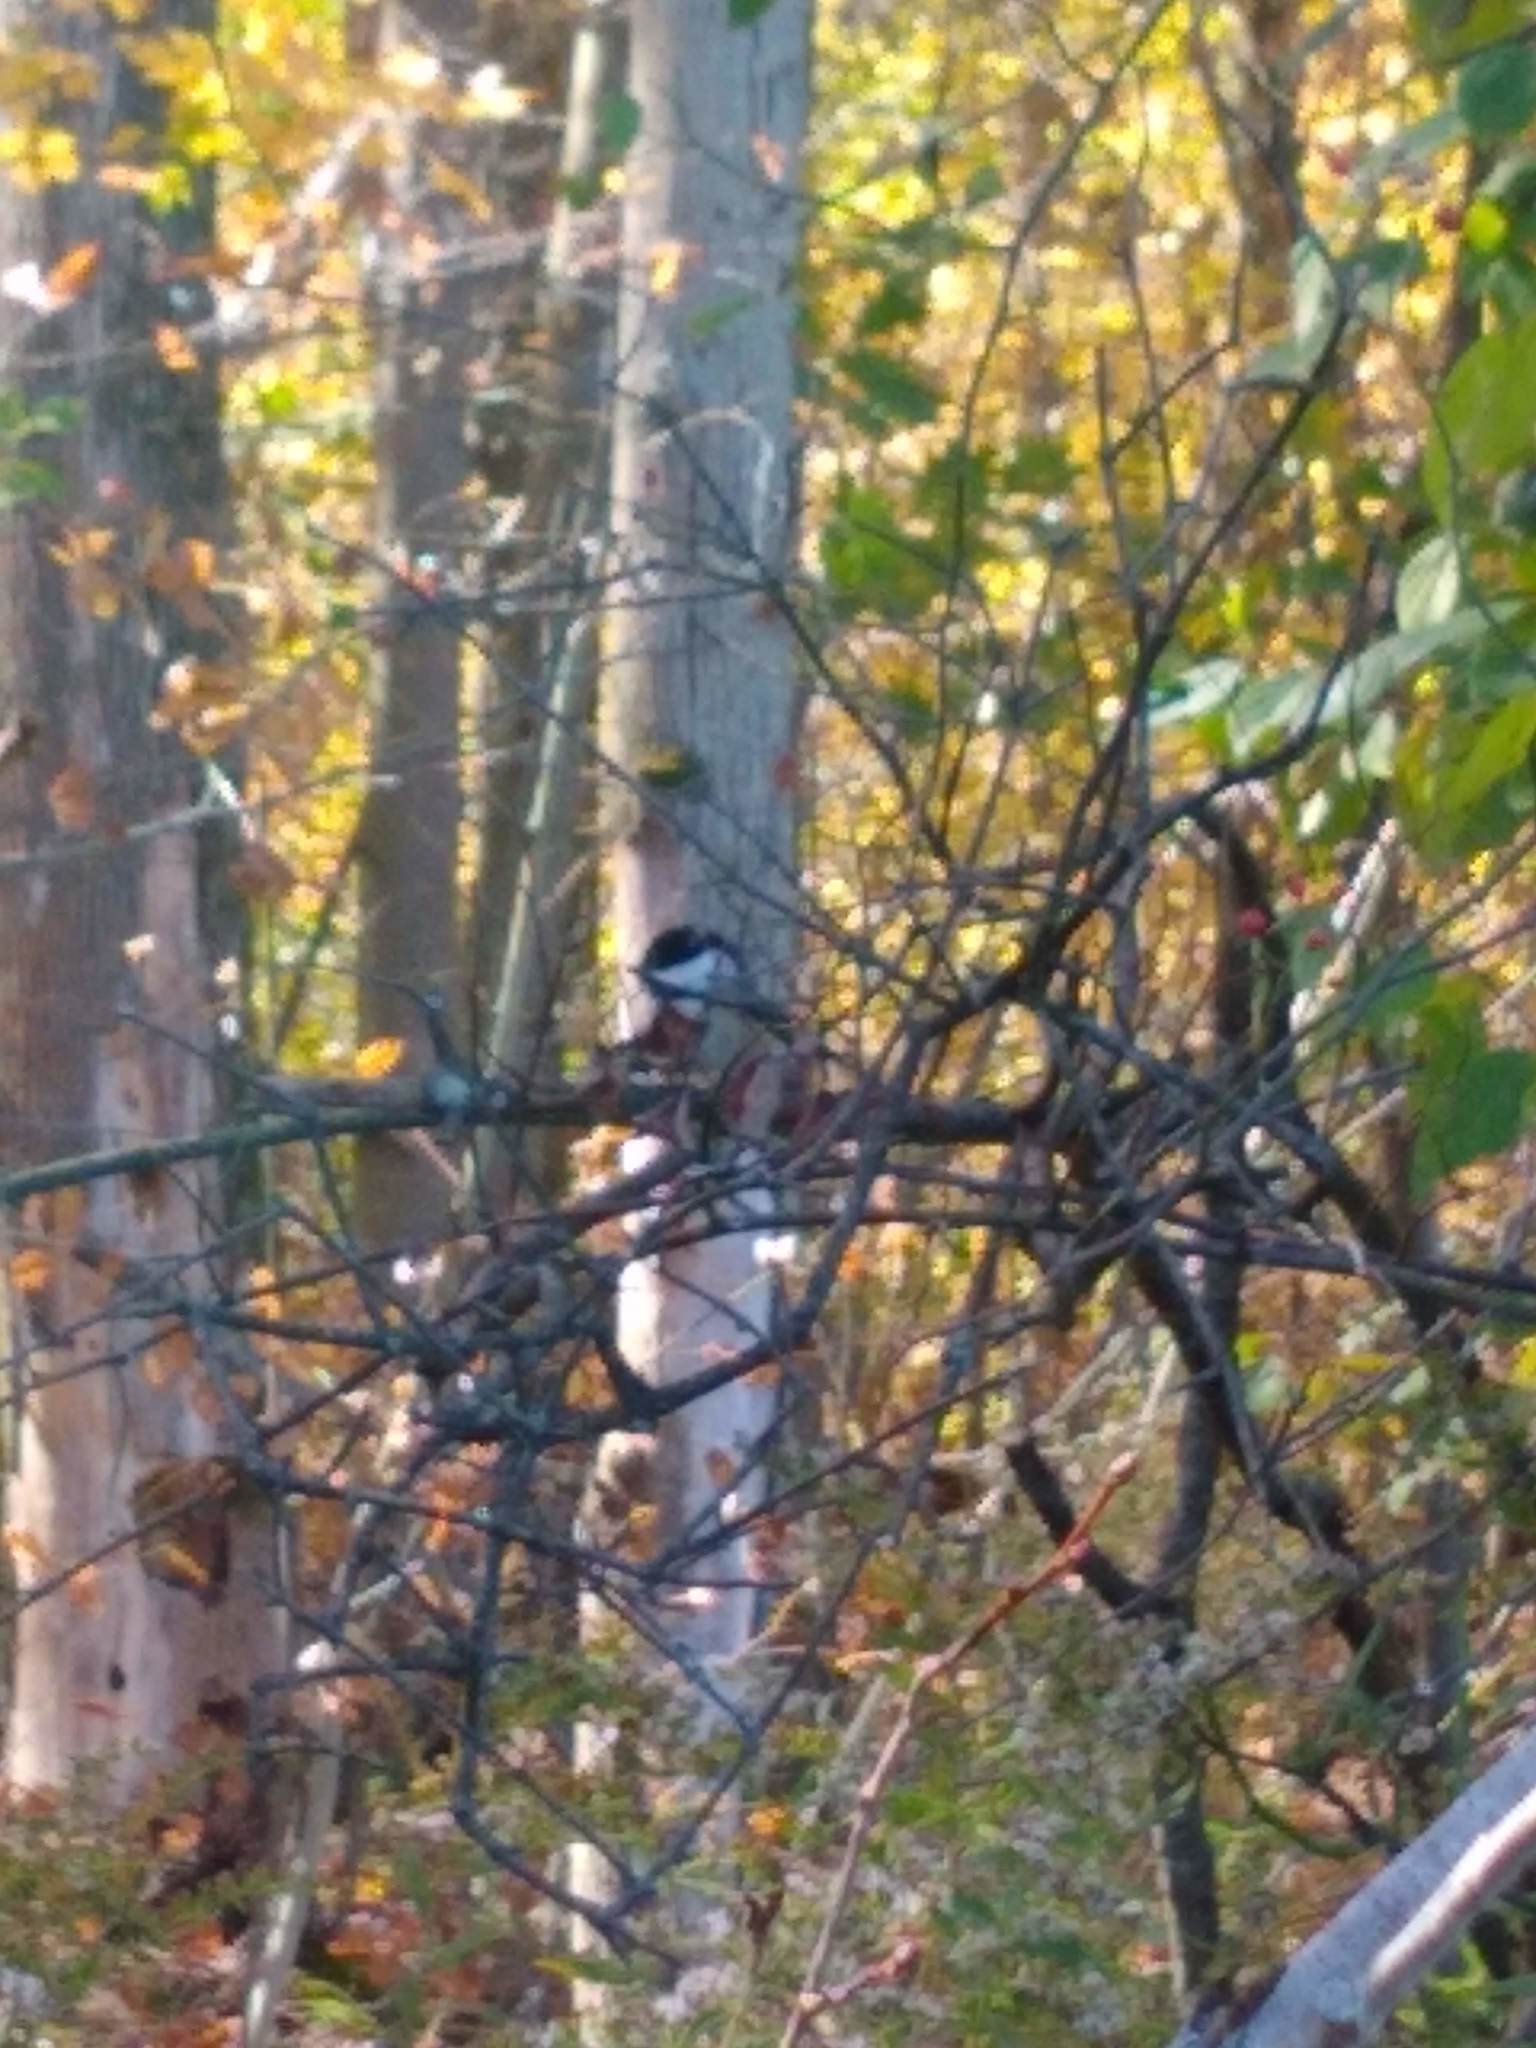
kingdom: Animalia
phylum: Chordata
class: Aves
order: Passeriformes
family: Paridae
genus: Poecile
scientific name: Poecile atricapillus
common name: Black-capped chickadee
